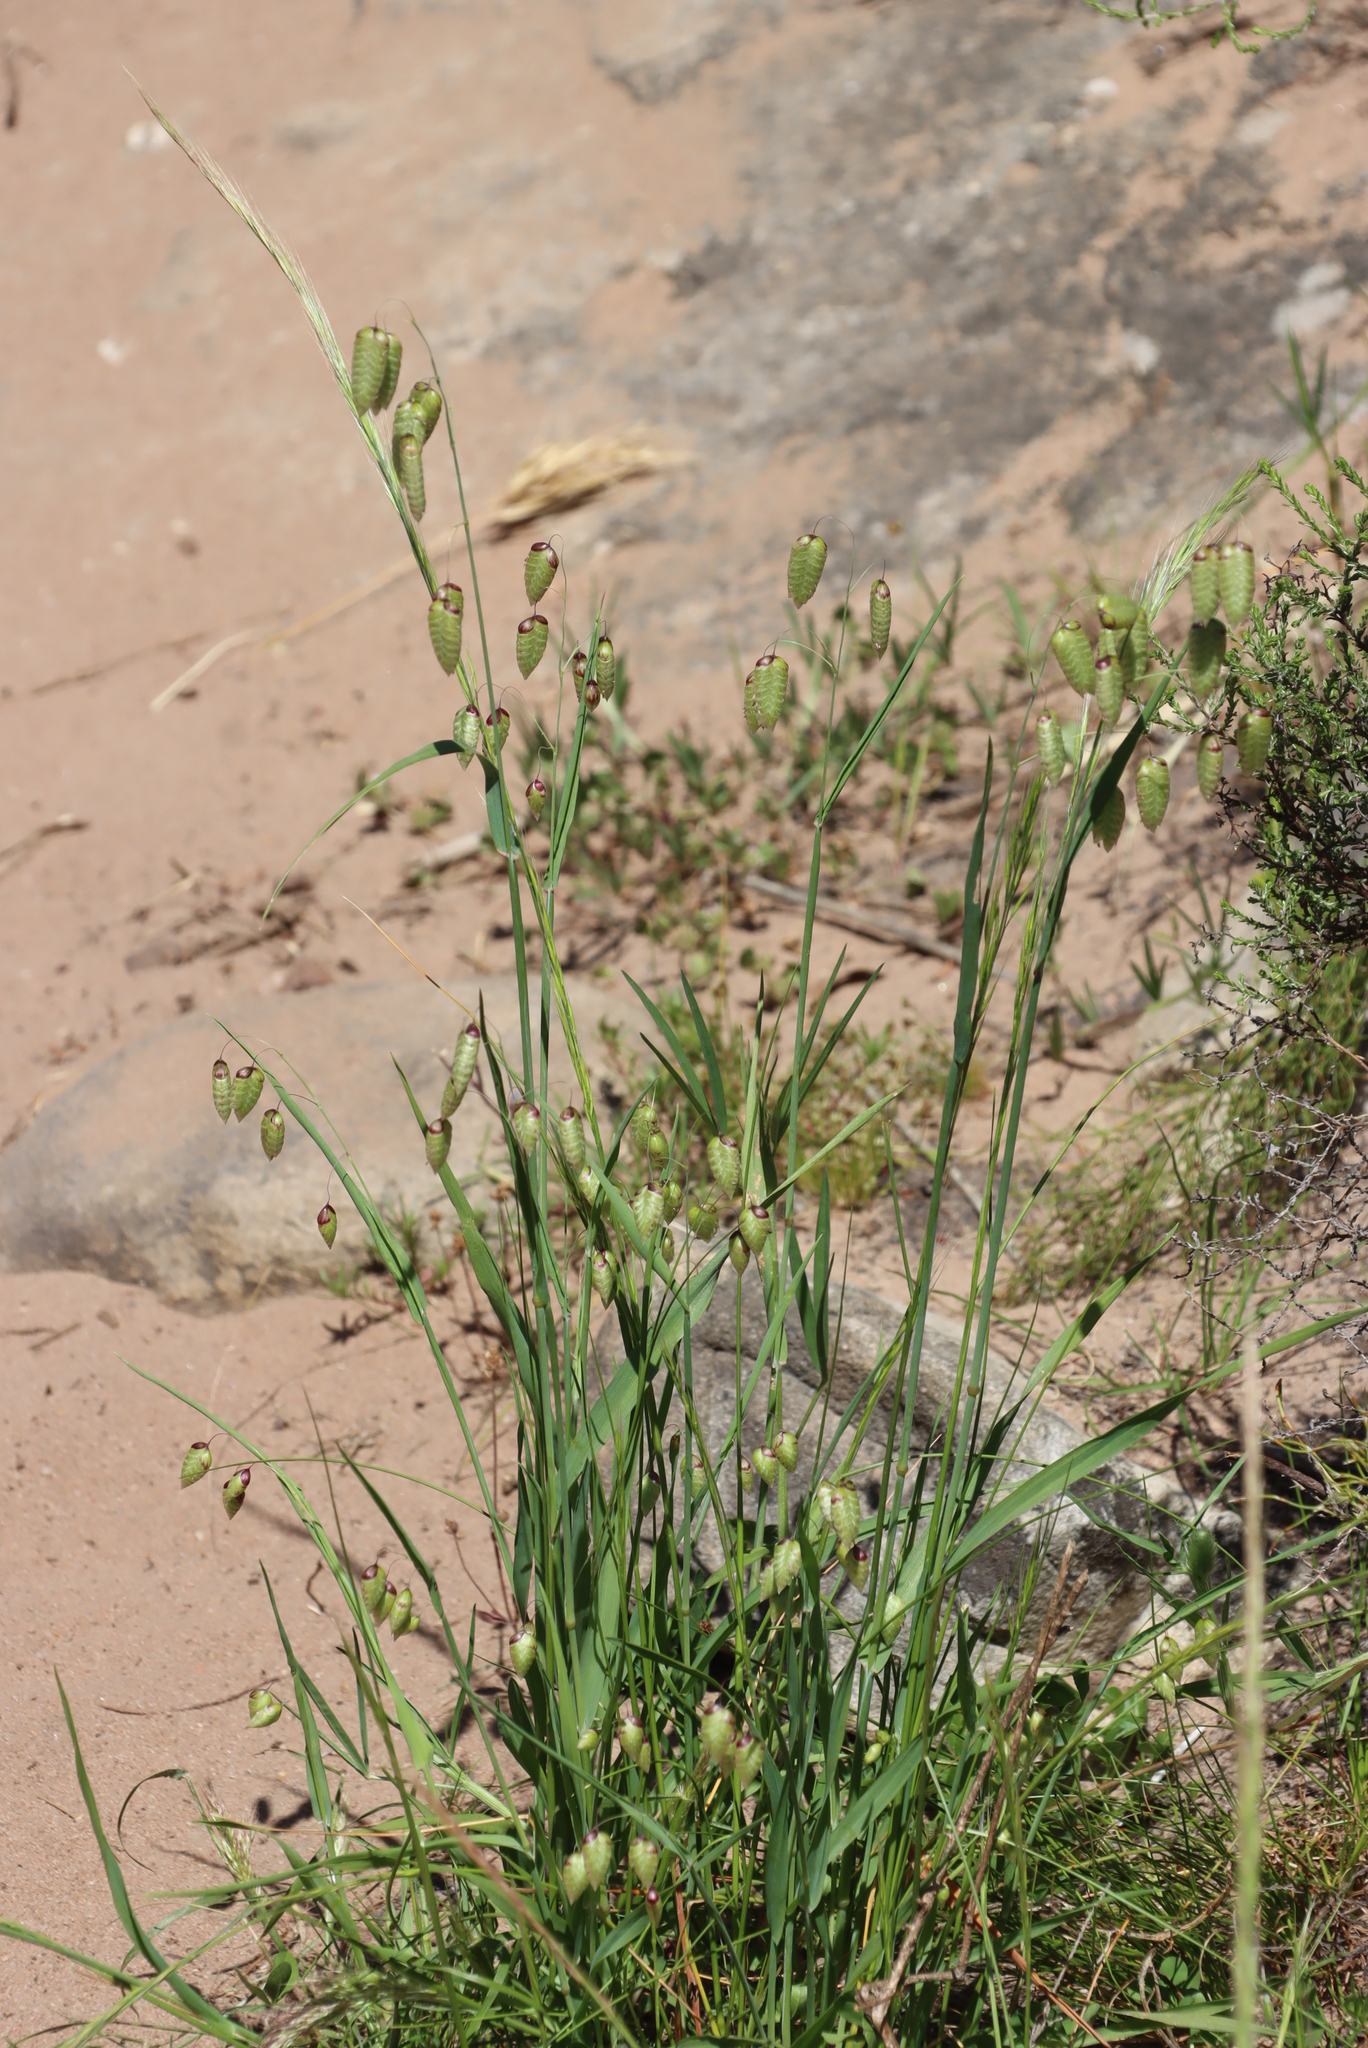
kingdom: Plantae
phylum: Tracheophyta
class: Liliopsida
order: Poales
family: Poaceae
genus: Briza
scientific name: Briza maxima
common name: Big quakinggrass
